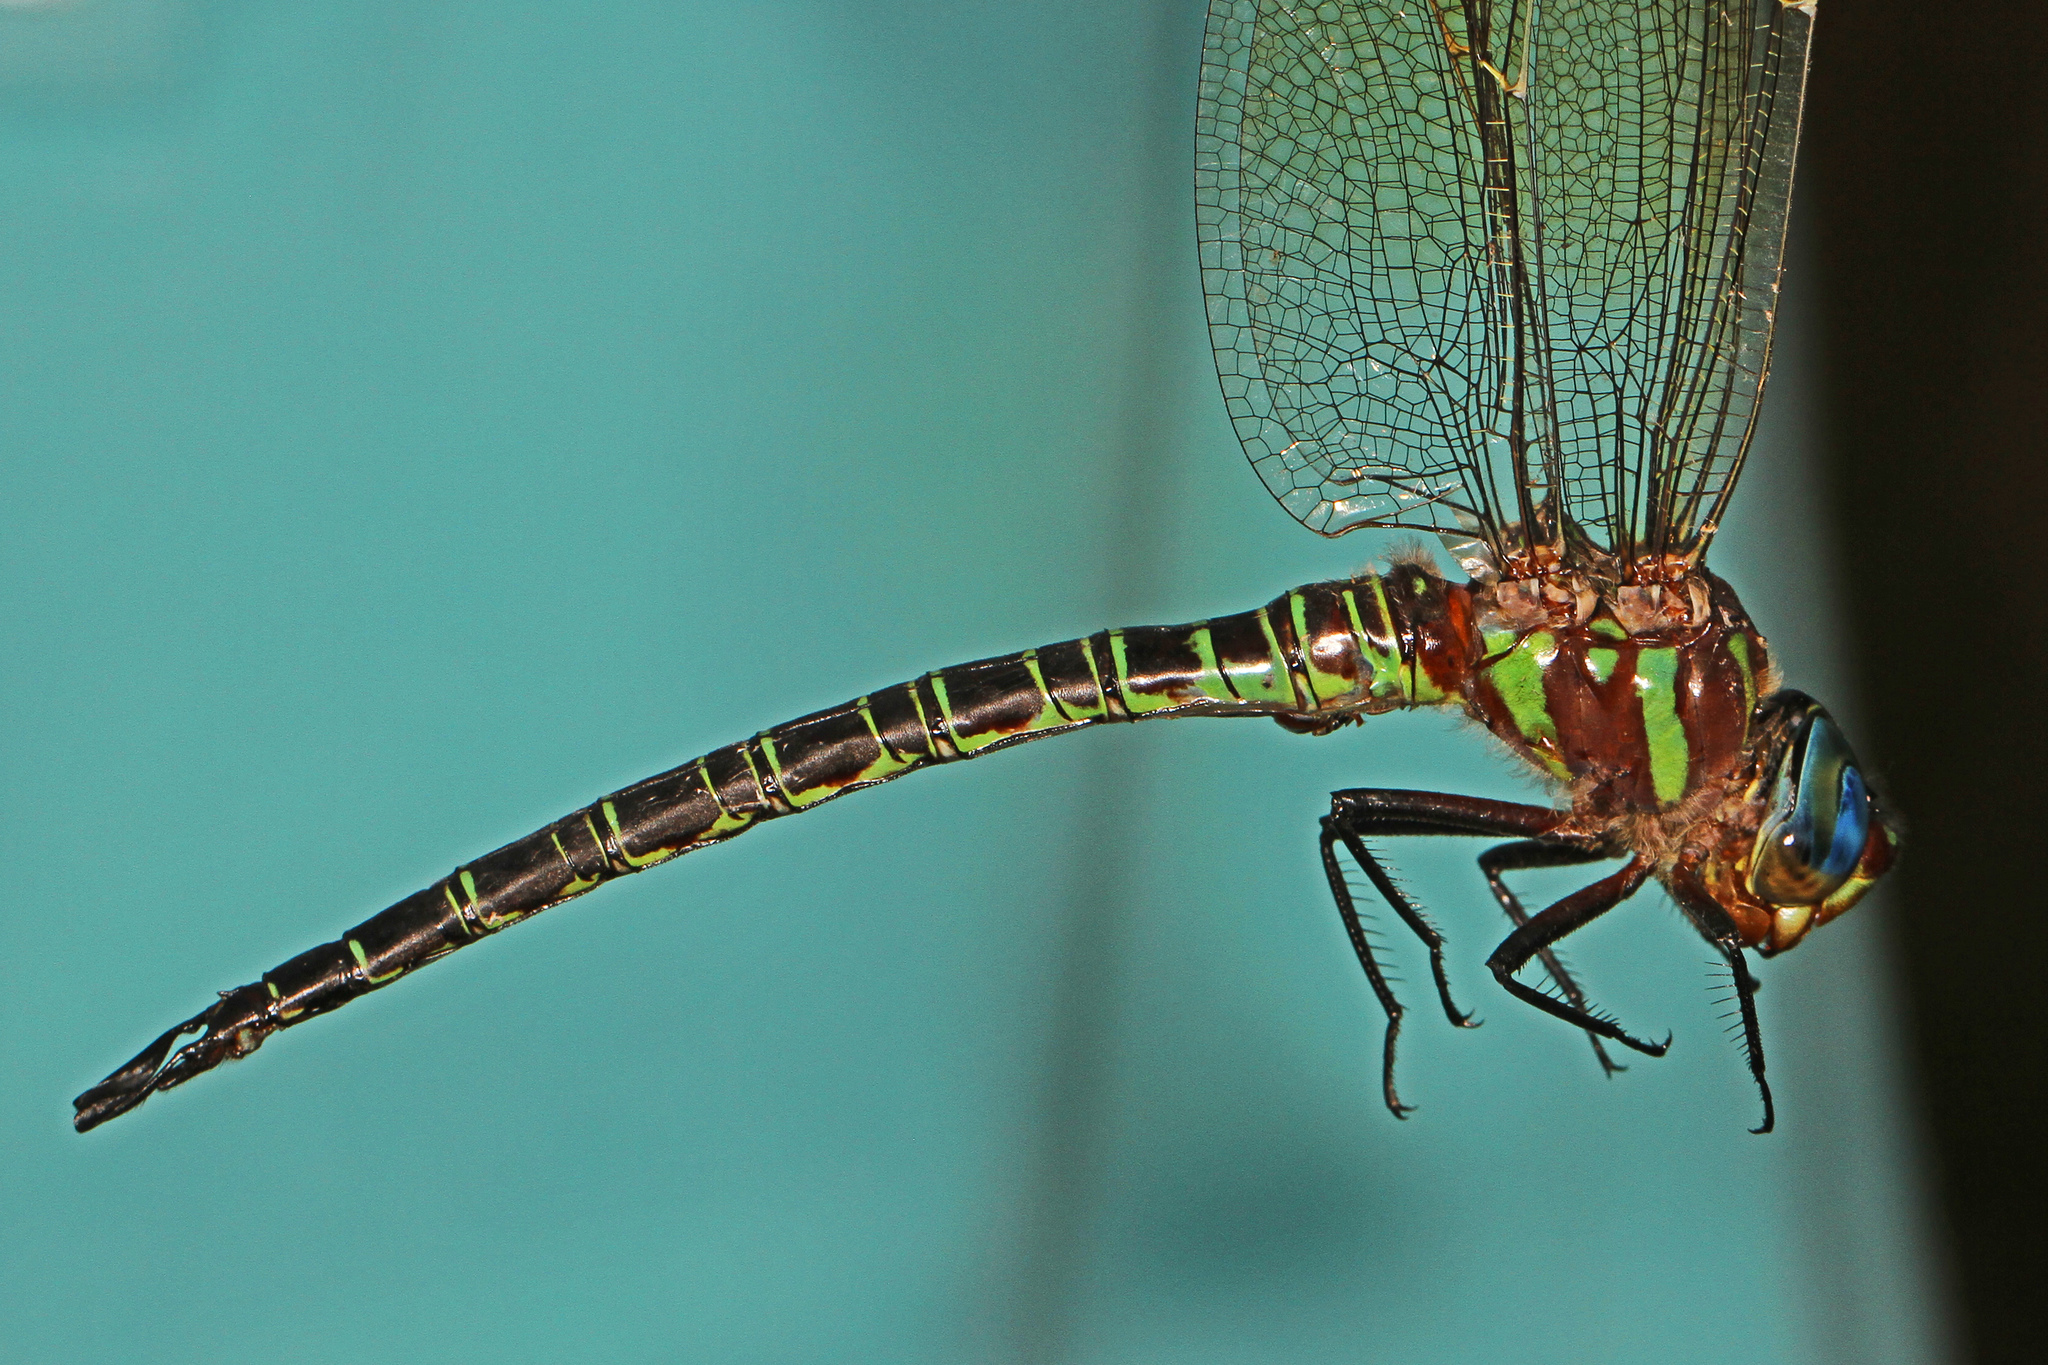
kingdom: Animalia
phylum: Arthropoda
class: Insecta
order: Odonata
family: Aeshnidae
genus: Epiaeschna
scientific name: Epiaeschna heros
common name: Swamp darner
